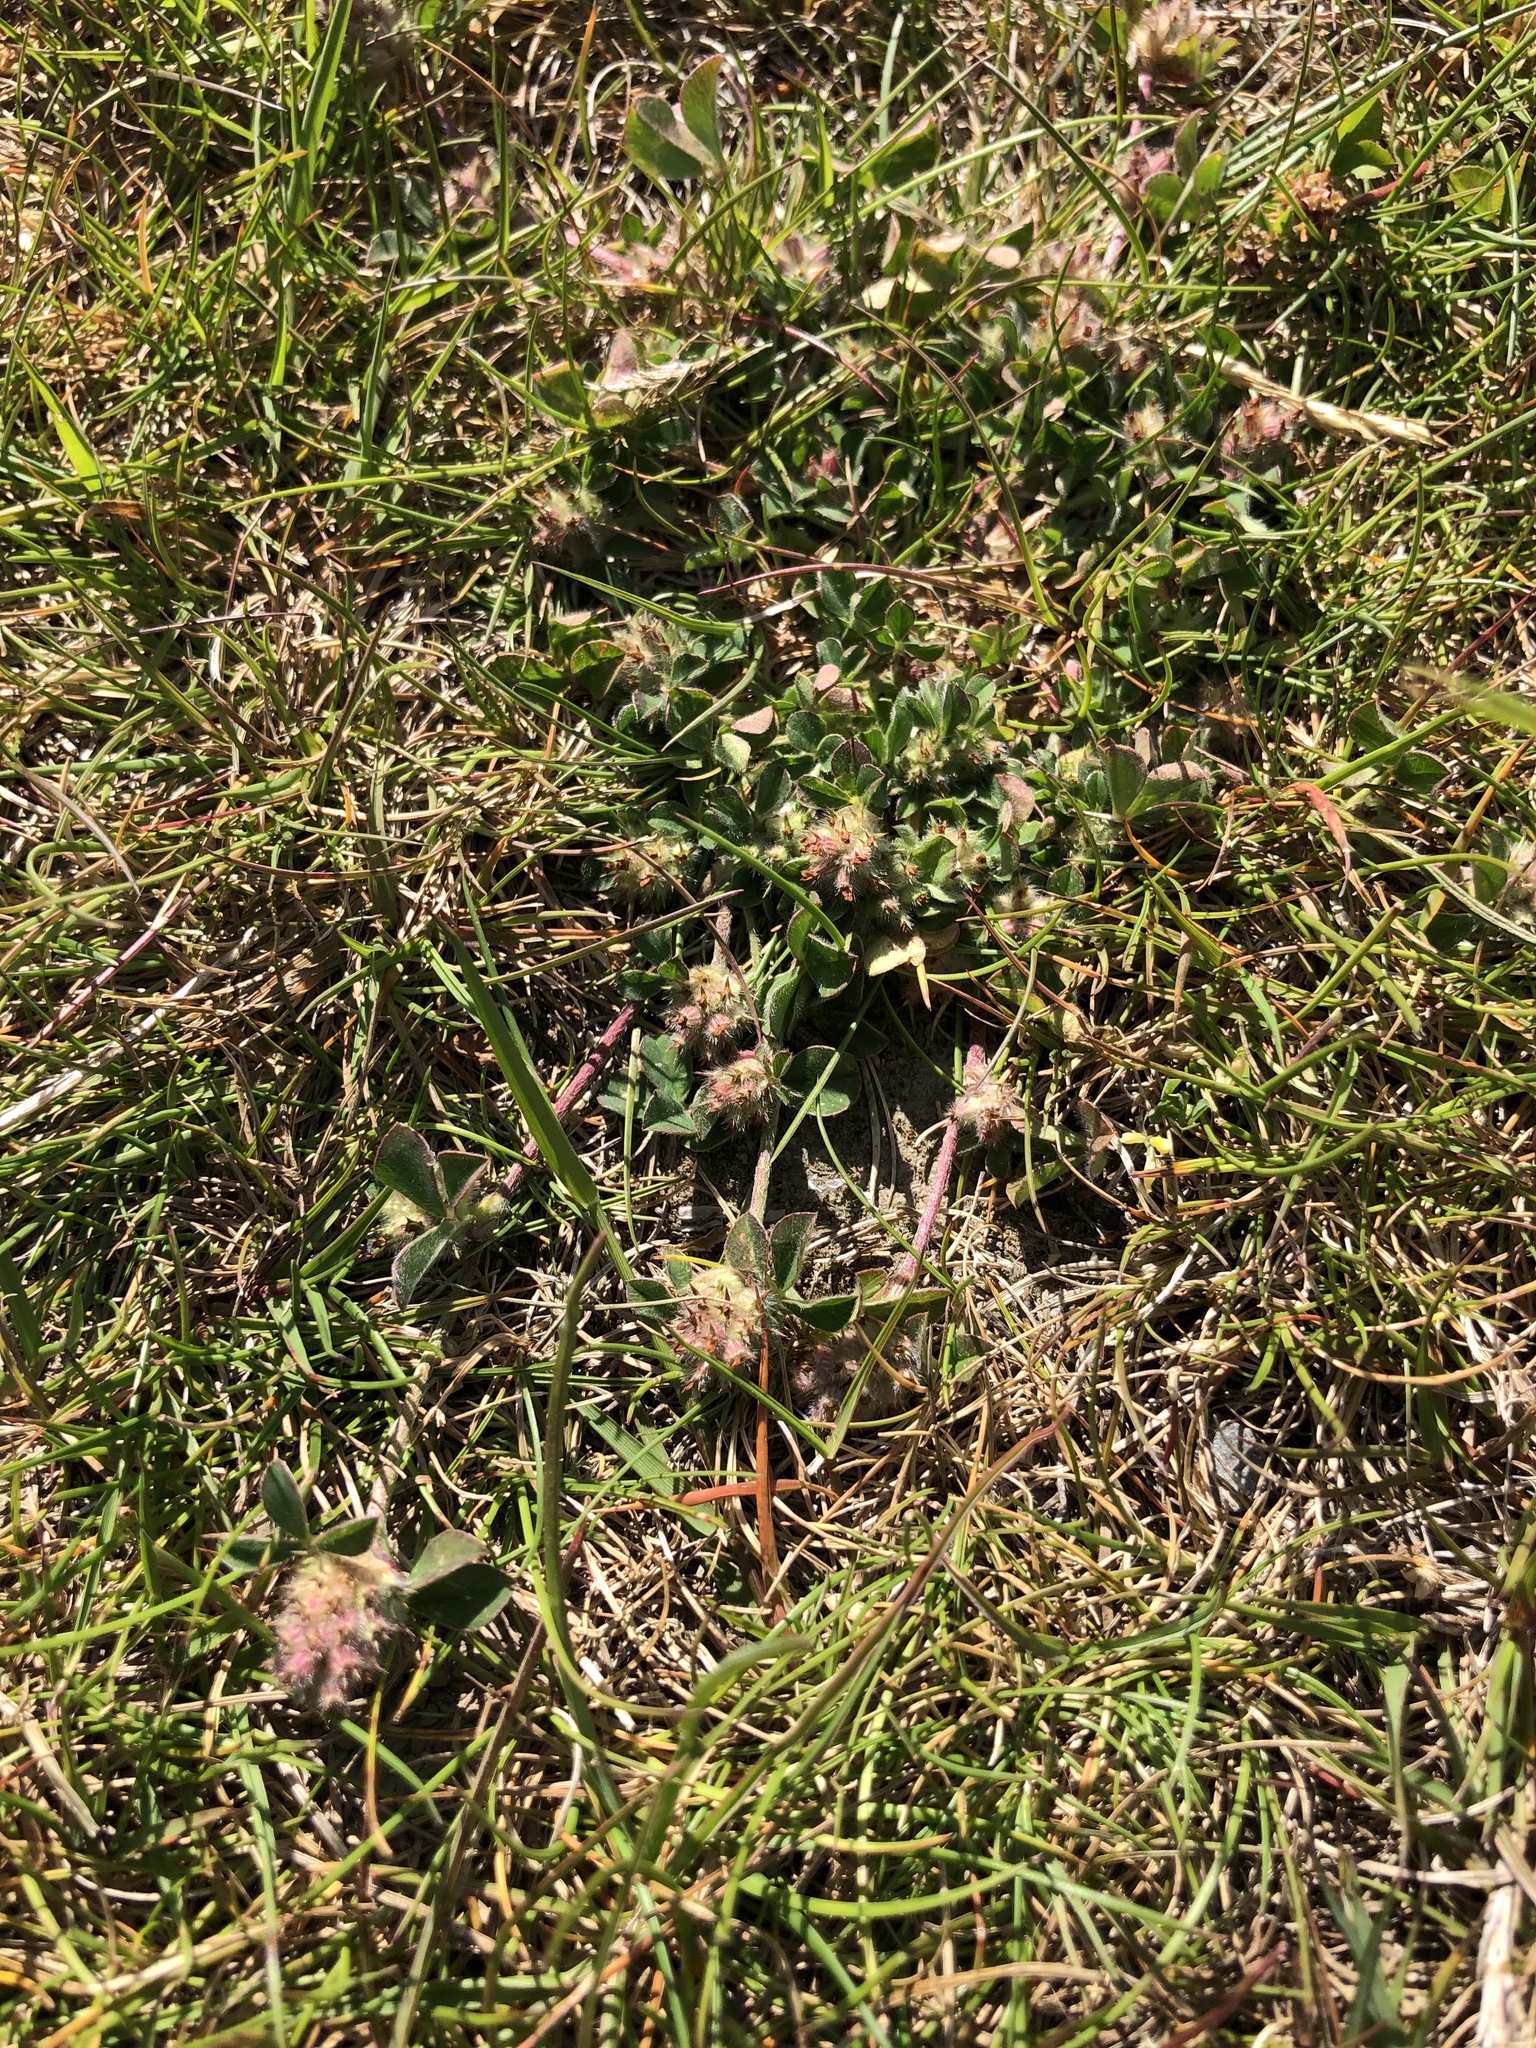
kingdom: Plantae
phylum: Tracheophyta
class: Magnoliopsida
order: Fabales
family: Fabaceae
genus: Trifolium
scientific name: Trifolium striatum
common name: Knotted clover
